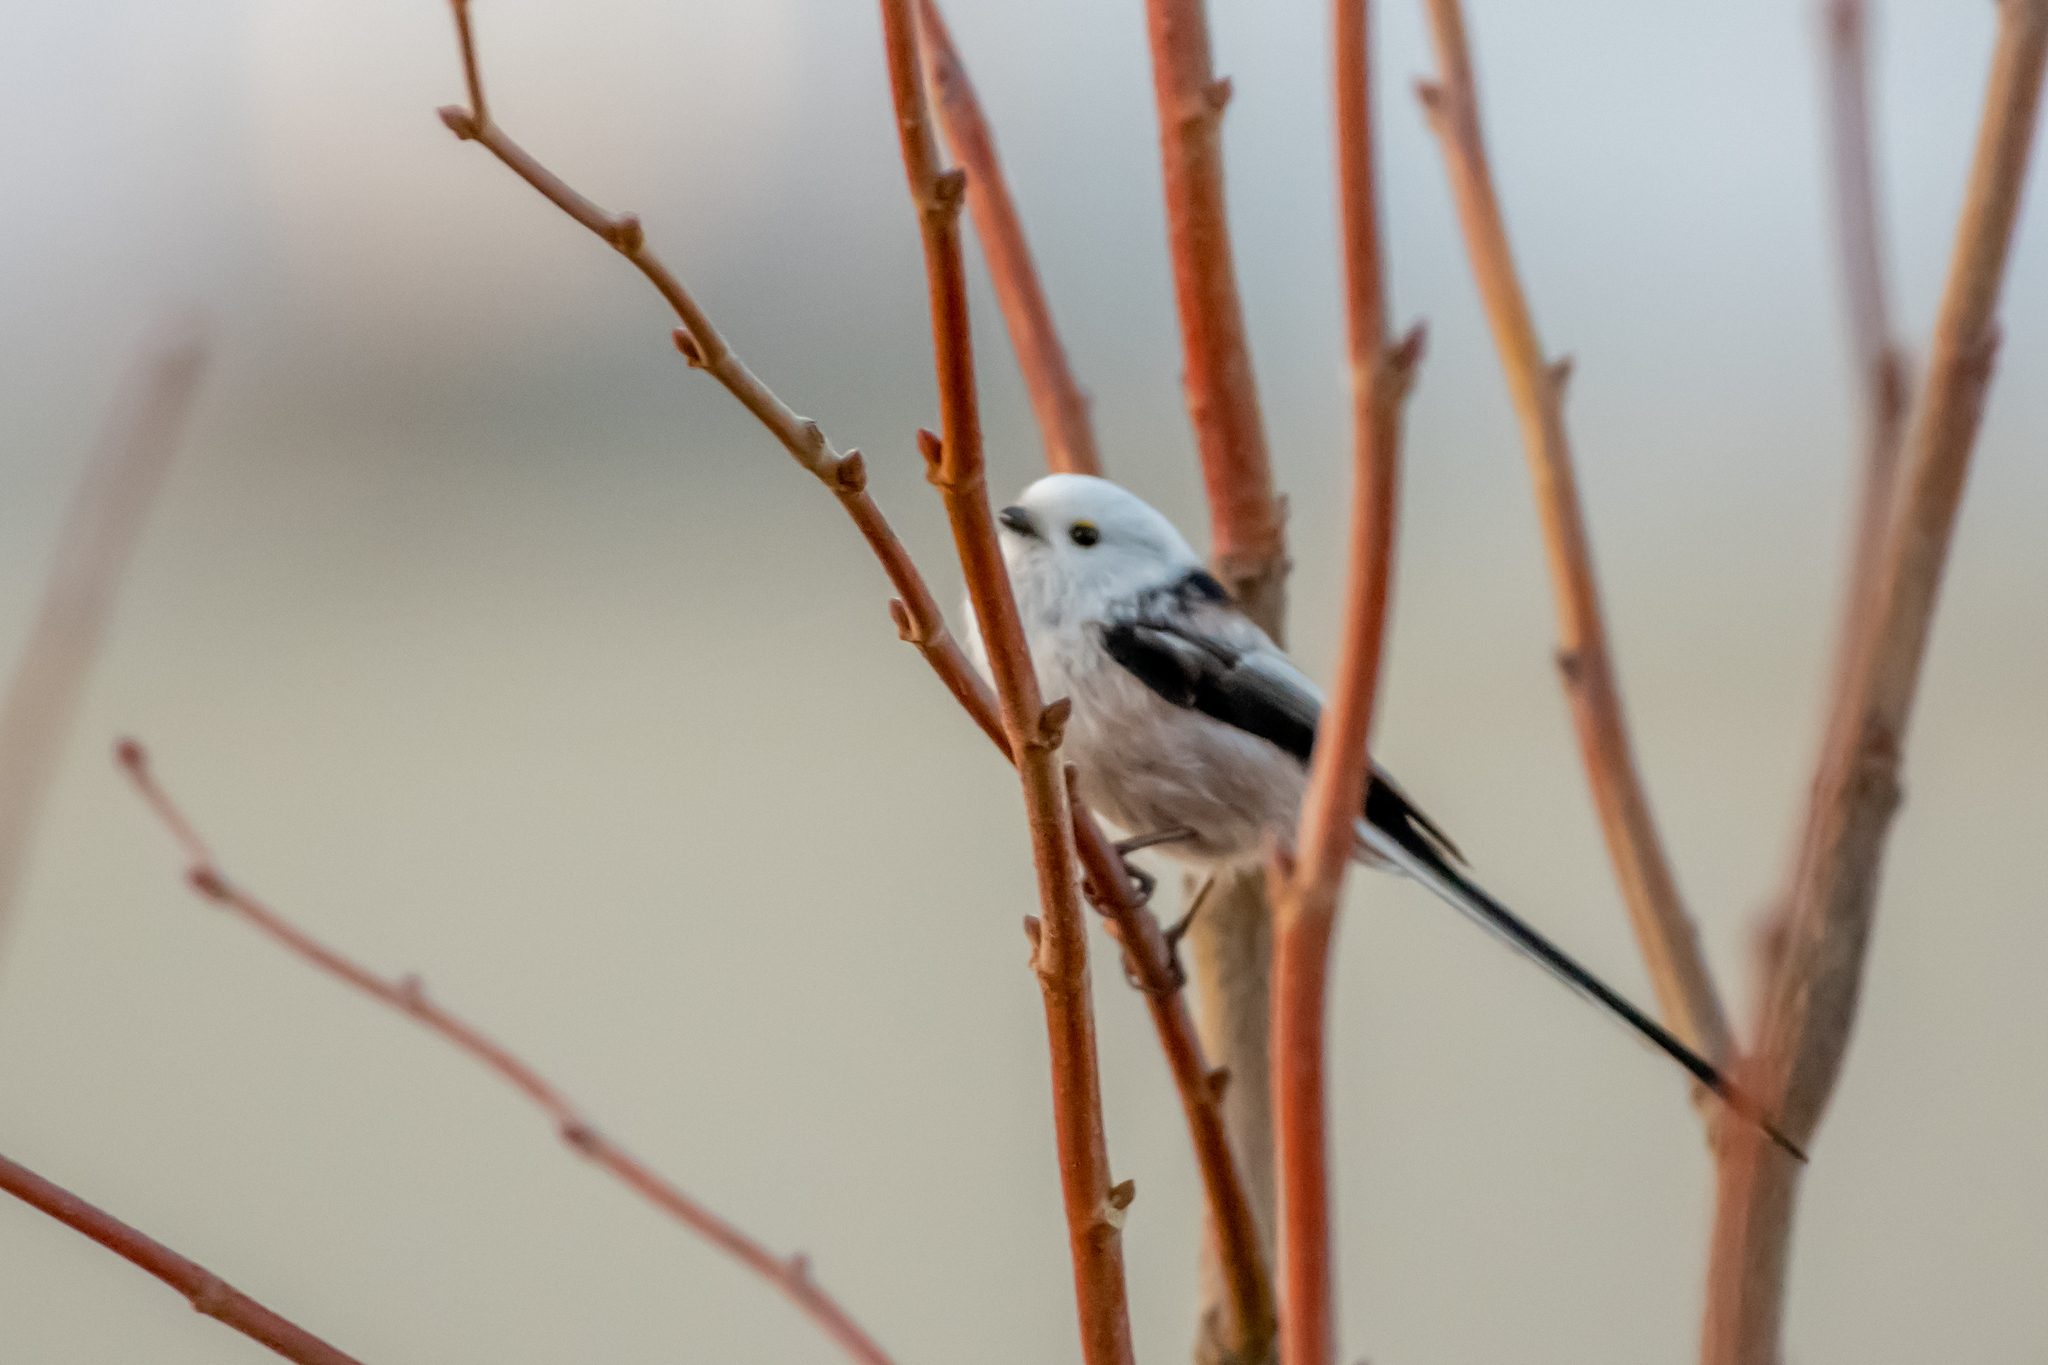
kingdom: Animalia
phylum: Chordata
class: Aves
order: Passeriformes
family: Aegithalidae
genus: Aegithalos
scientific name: Aegithalos caudatus
